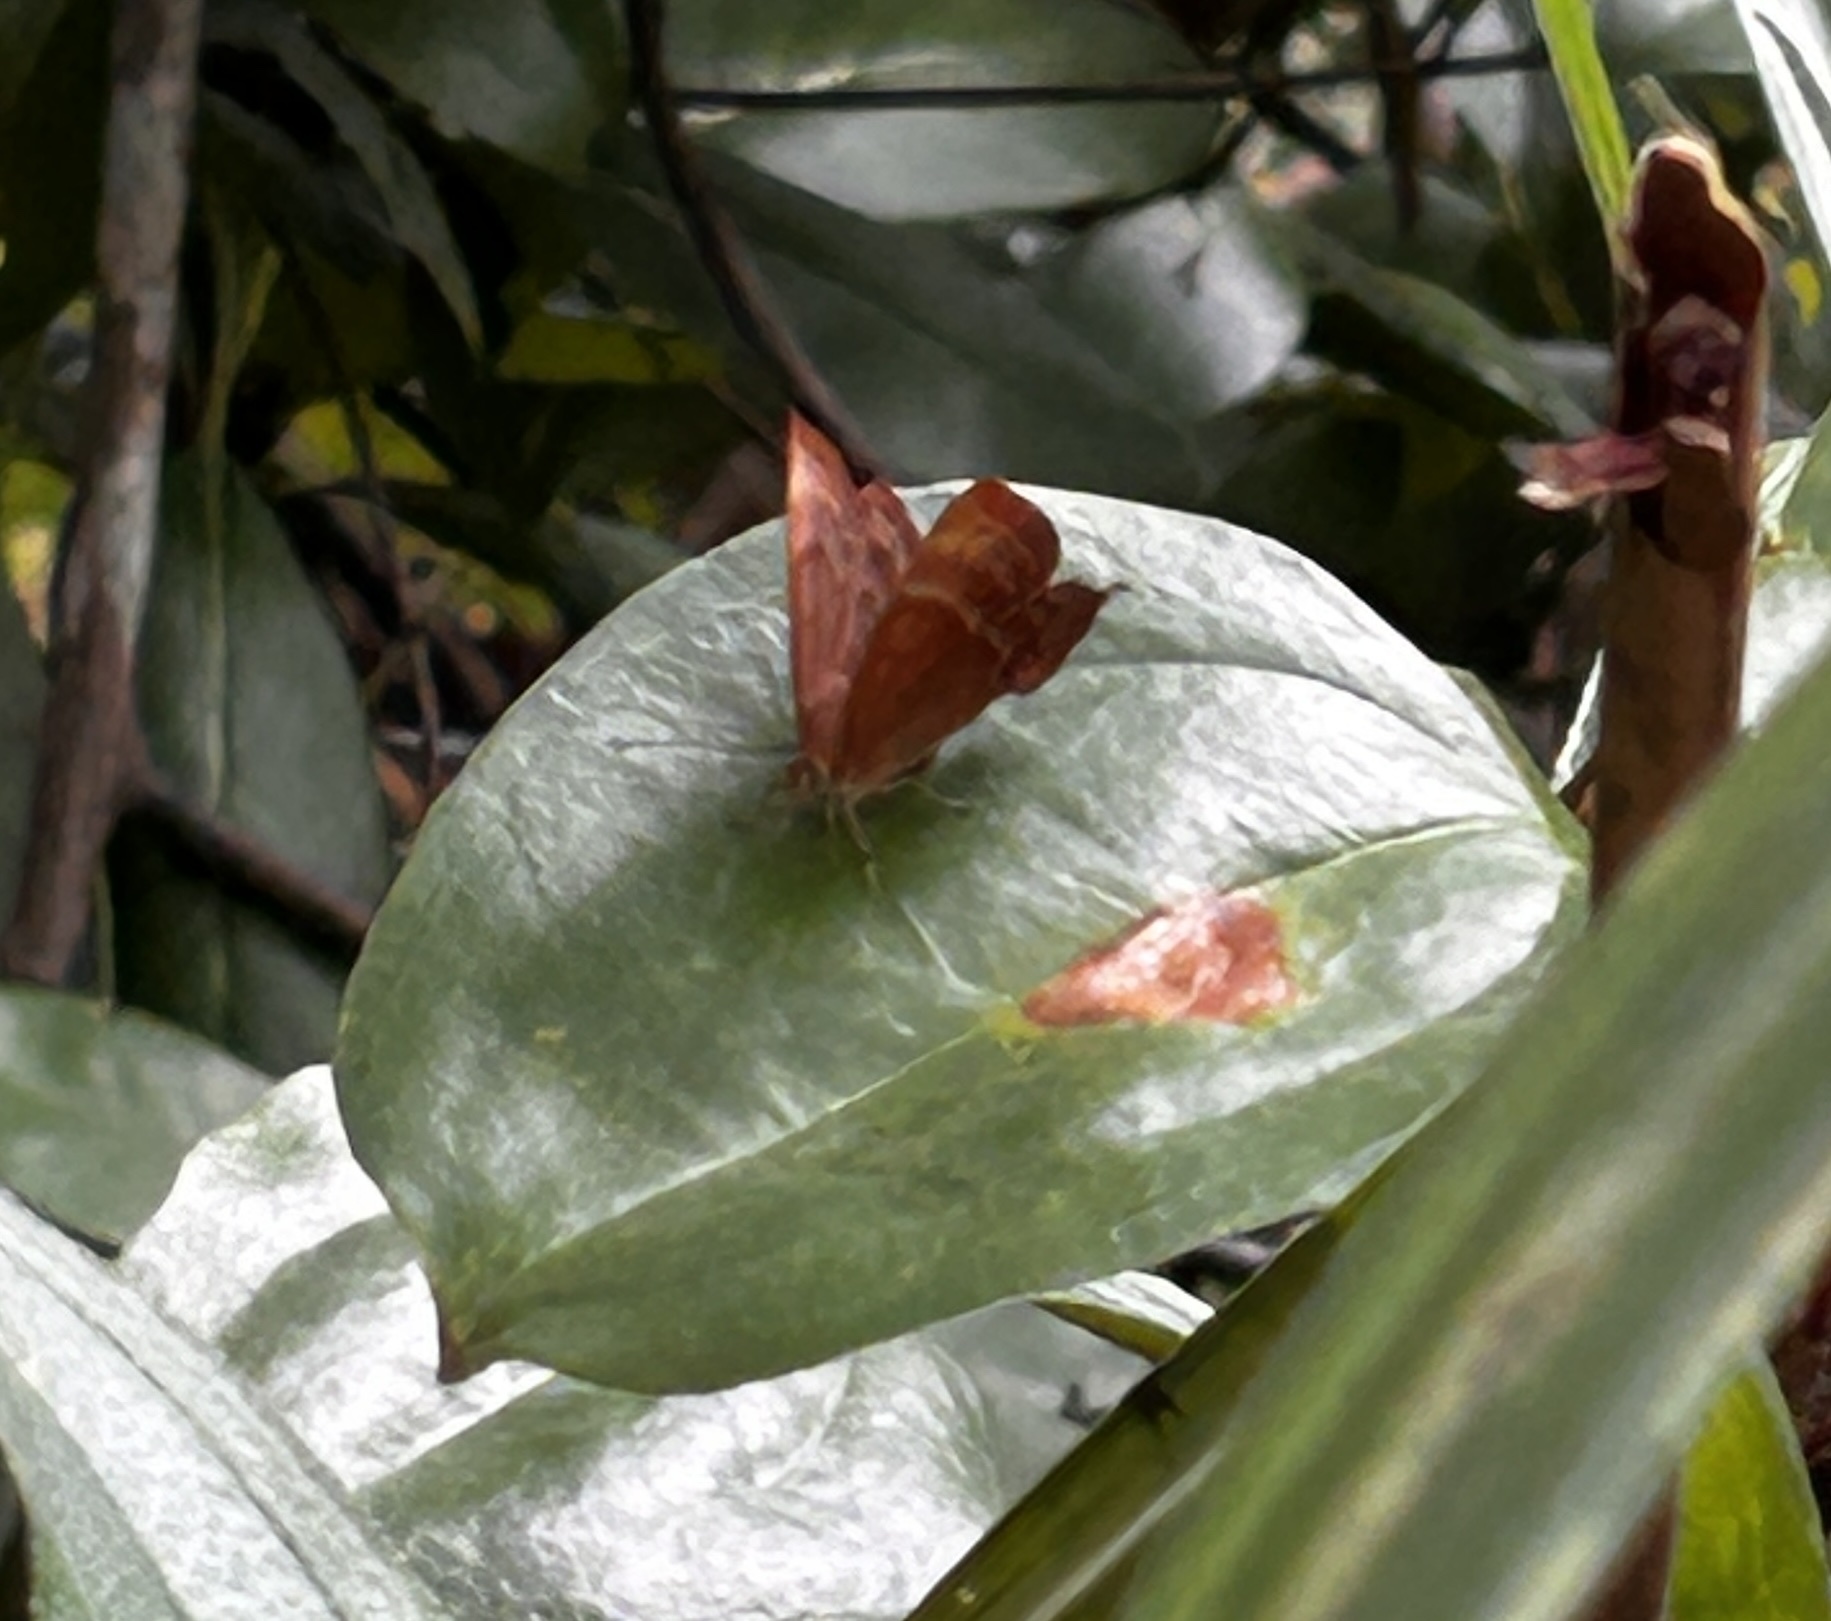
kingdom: Animalia
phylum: Arthropoda
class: Insecta
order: Lepidoptera
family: Lycaenidae
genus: Abisara
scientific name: Abisara echeria
